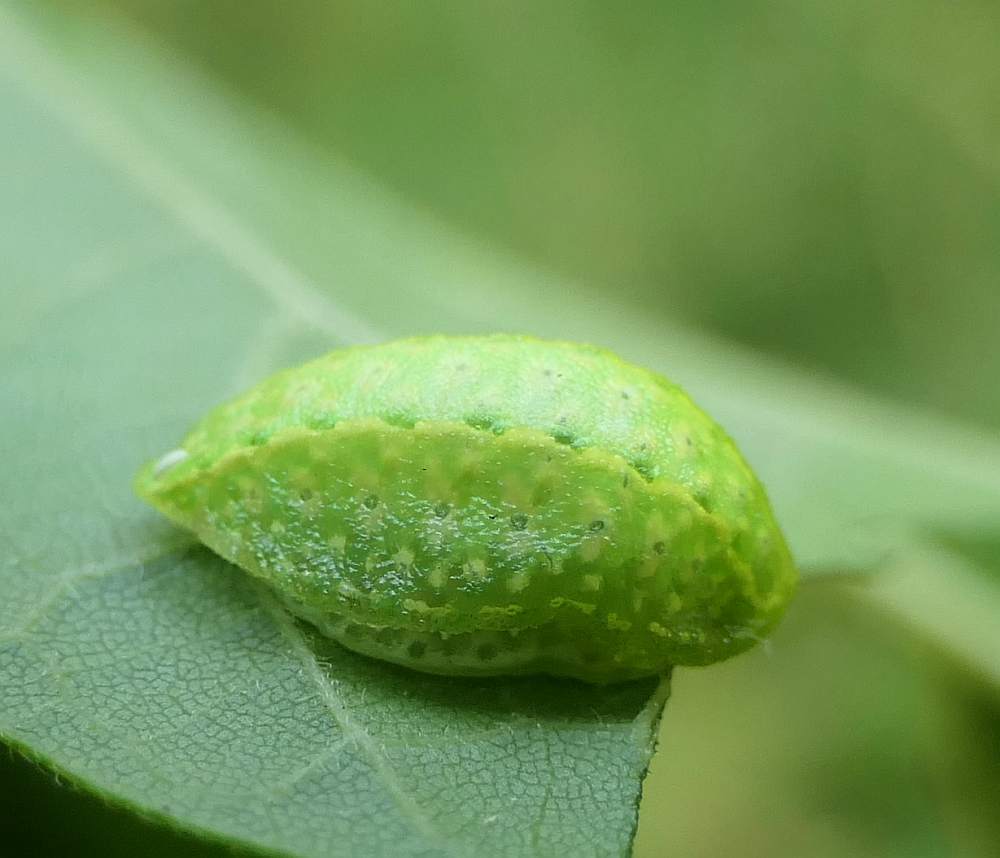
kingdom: Animalia
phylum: Arthropoda
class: Insecta
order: Lepidoptera
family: Limacodidae
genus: Lithacodes
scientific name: Lithacodes fasciola
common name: Yellow-shouldered slug moth
